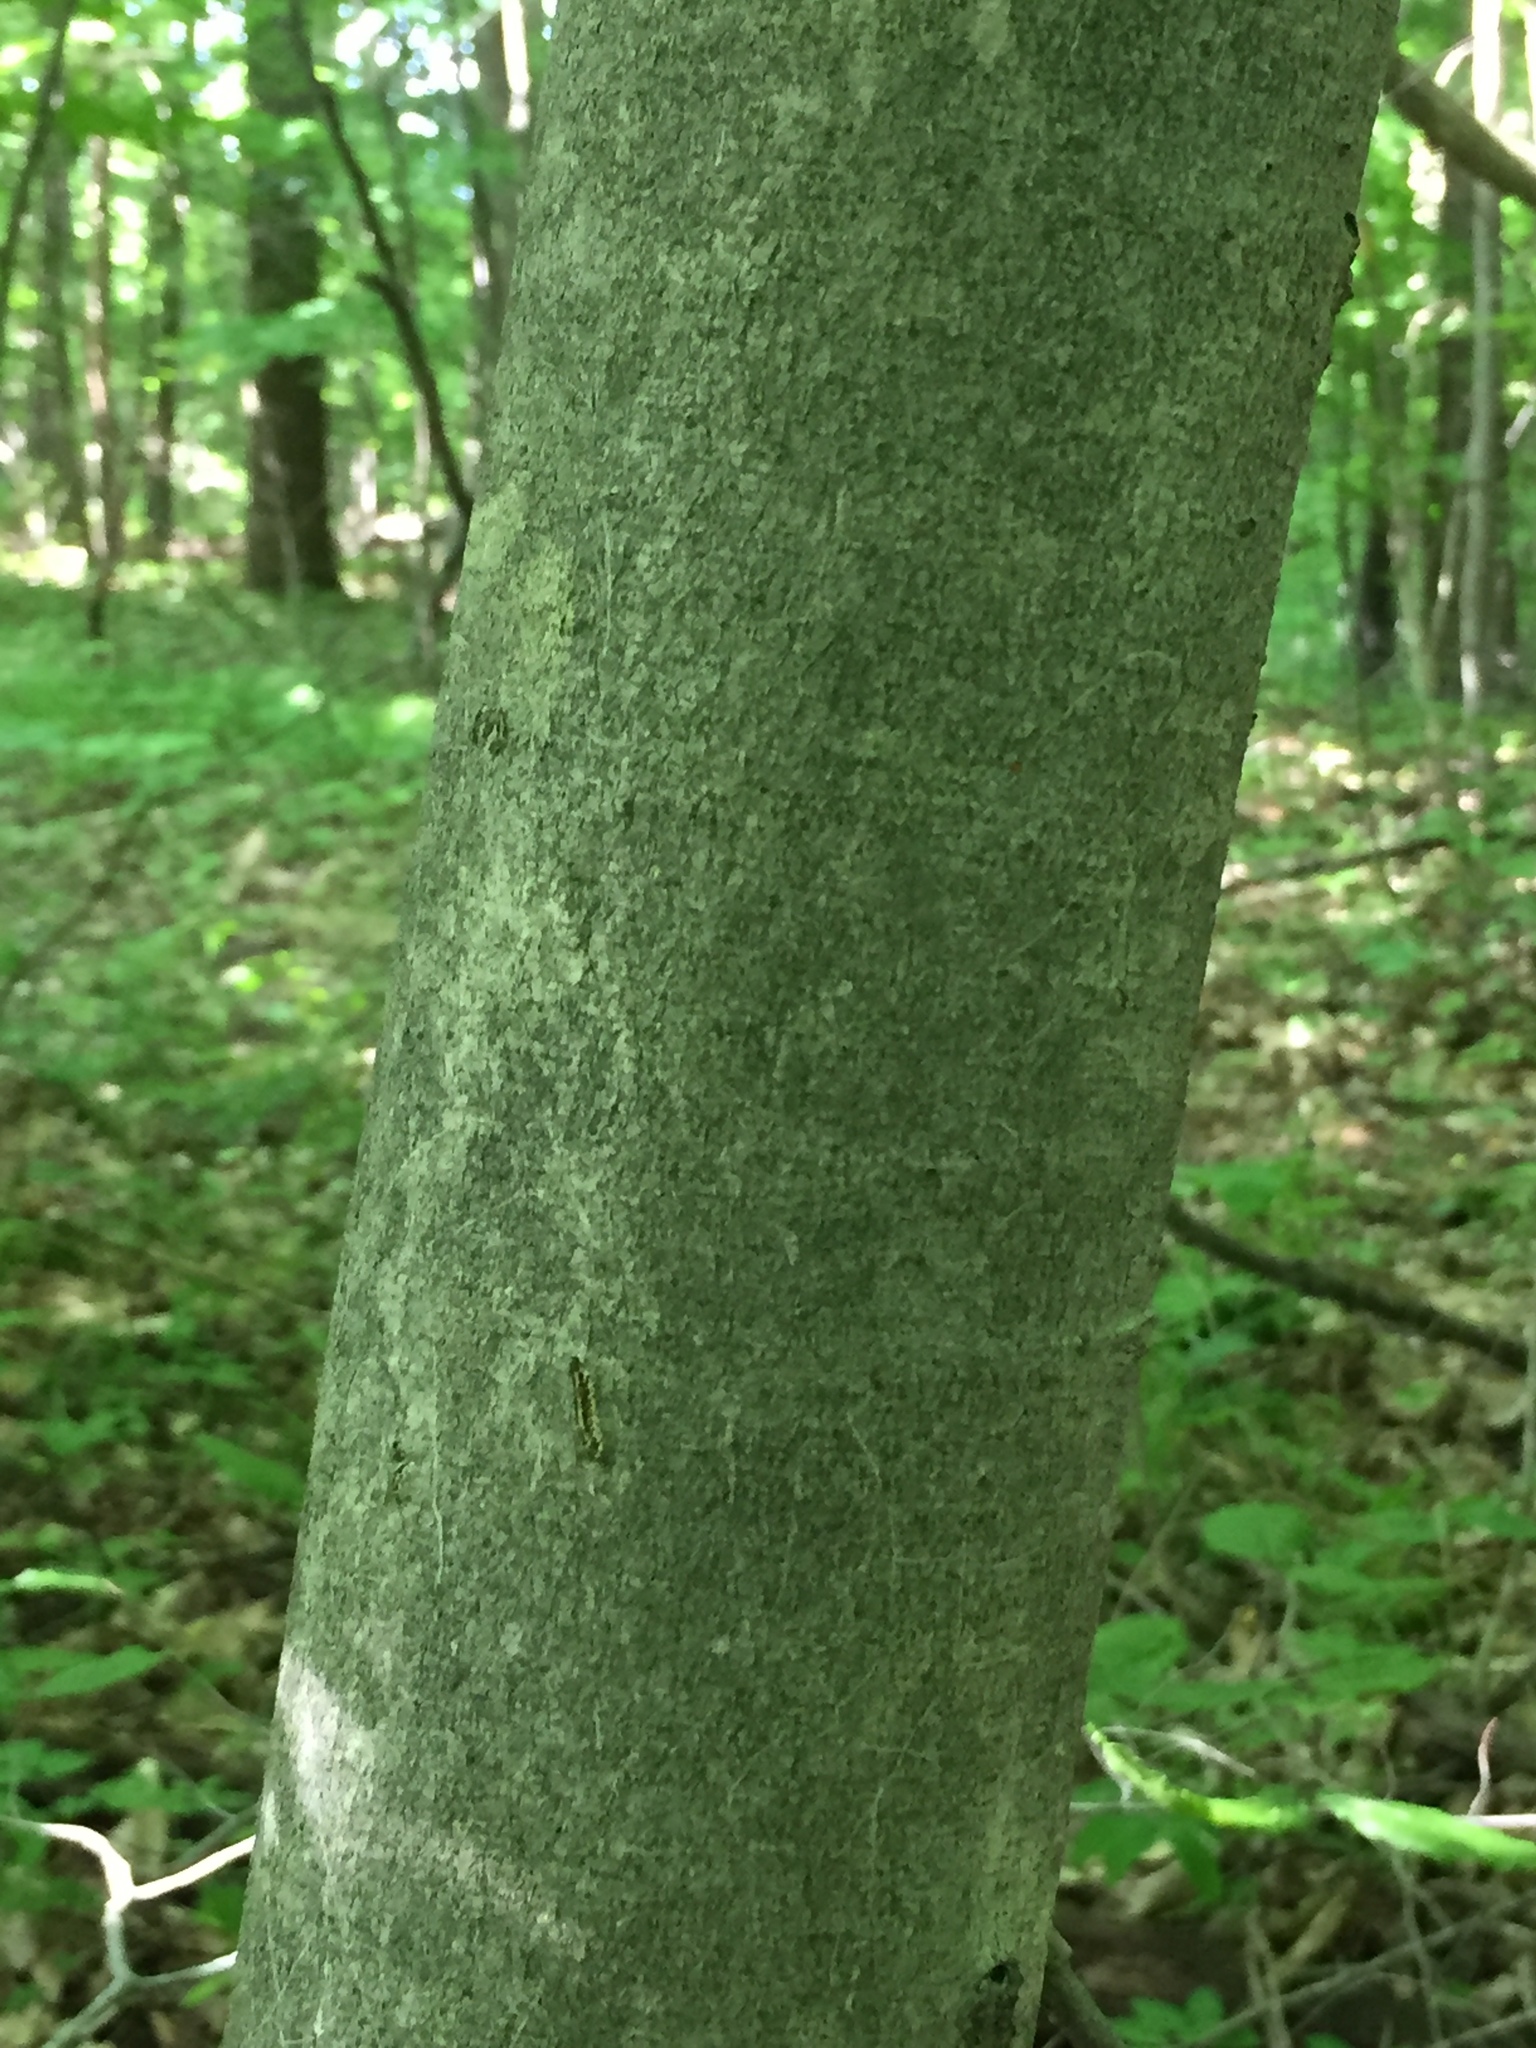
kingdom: Plantae
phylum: Tracheophyta
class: Magnoliopsida
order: Fagales
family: Fagaceae
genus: Fagus
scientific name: Fagus grandifolia
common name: American beech
